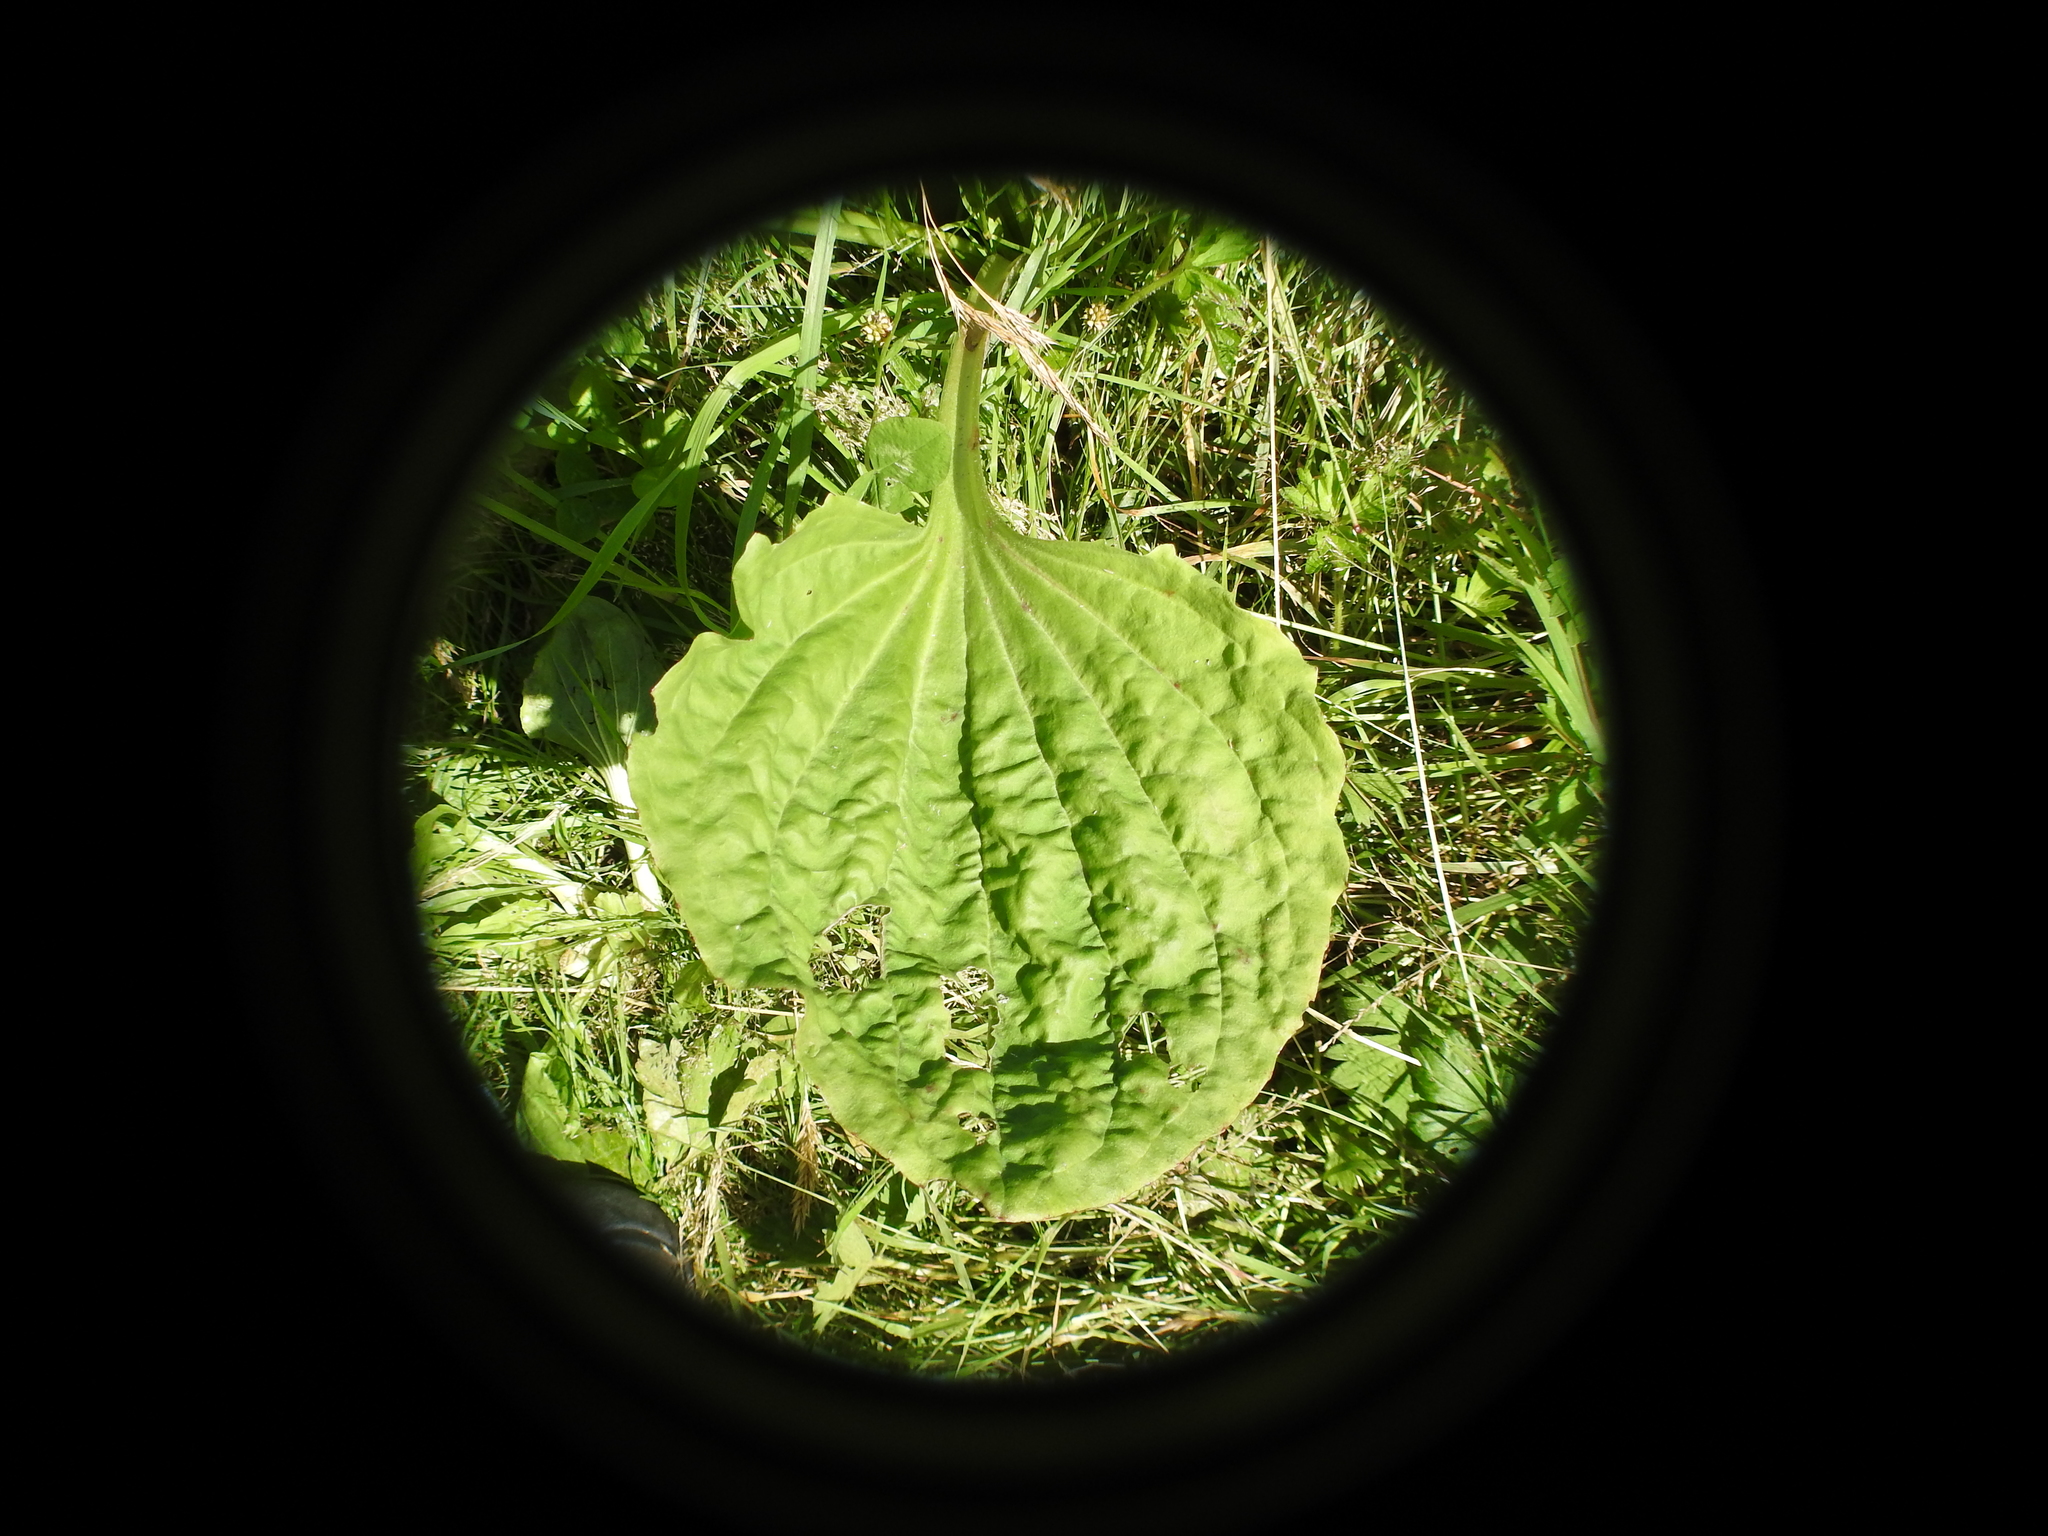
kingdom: Plantae
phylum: Tracheophyta
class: Magnoliopsida
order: Lamiales
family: Plantaginaceae
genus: Plantago
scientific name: Plantago major
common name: Common plantain
